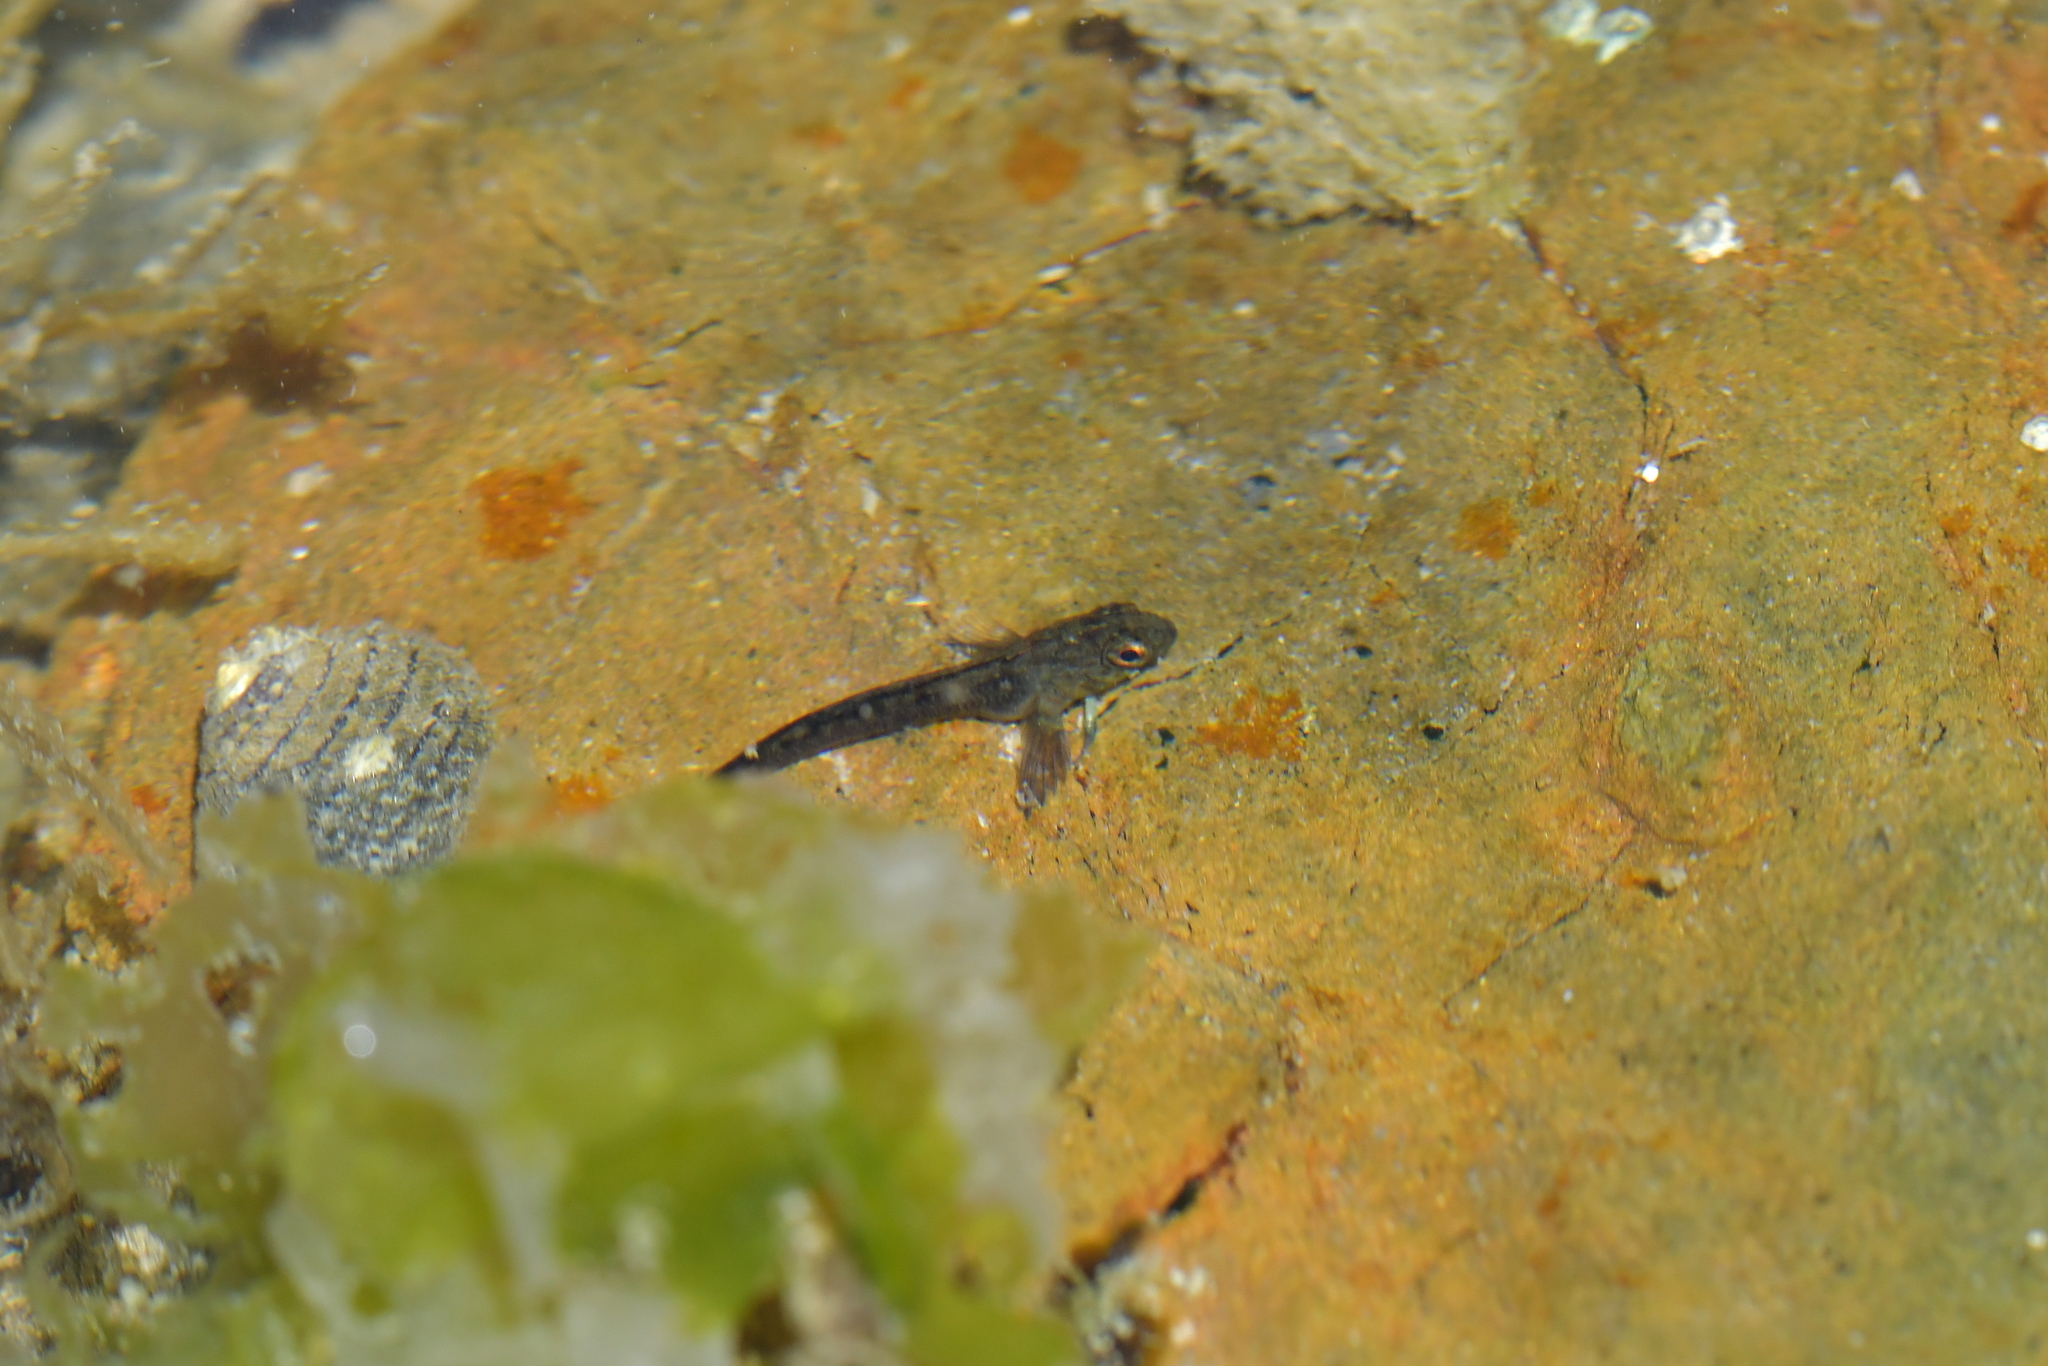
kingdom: Animalia
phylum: Chordata
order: Perciformes
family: Tripterygiidae
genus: Forsterygion
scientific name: Forsterygion lapillum
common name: Common triplefin
